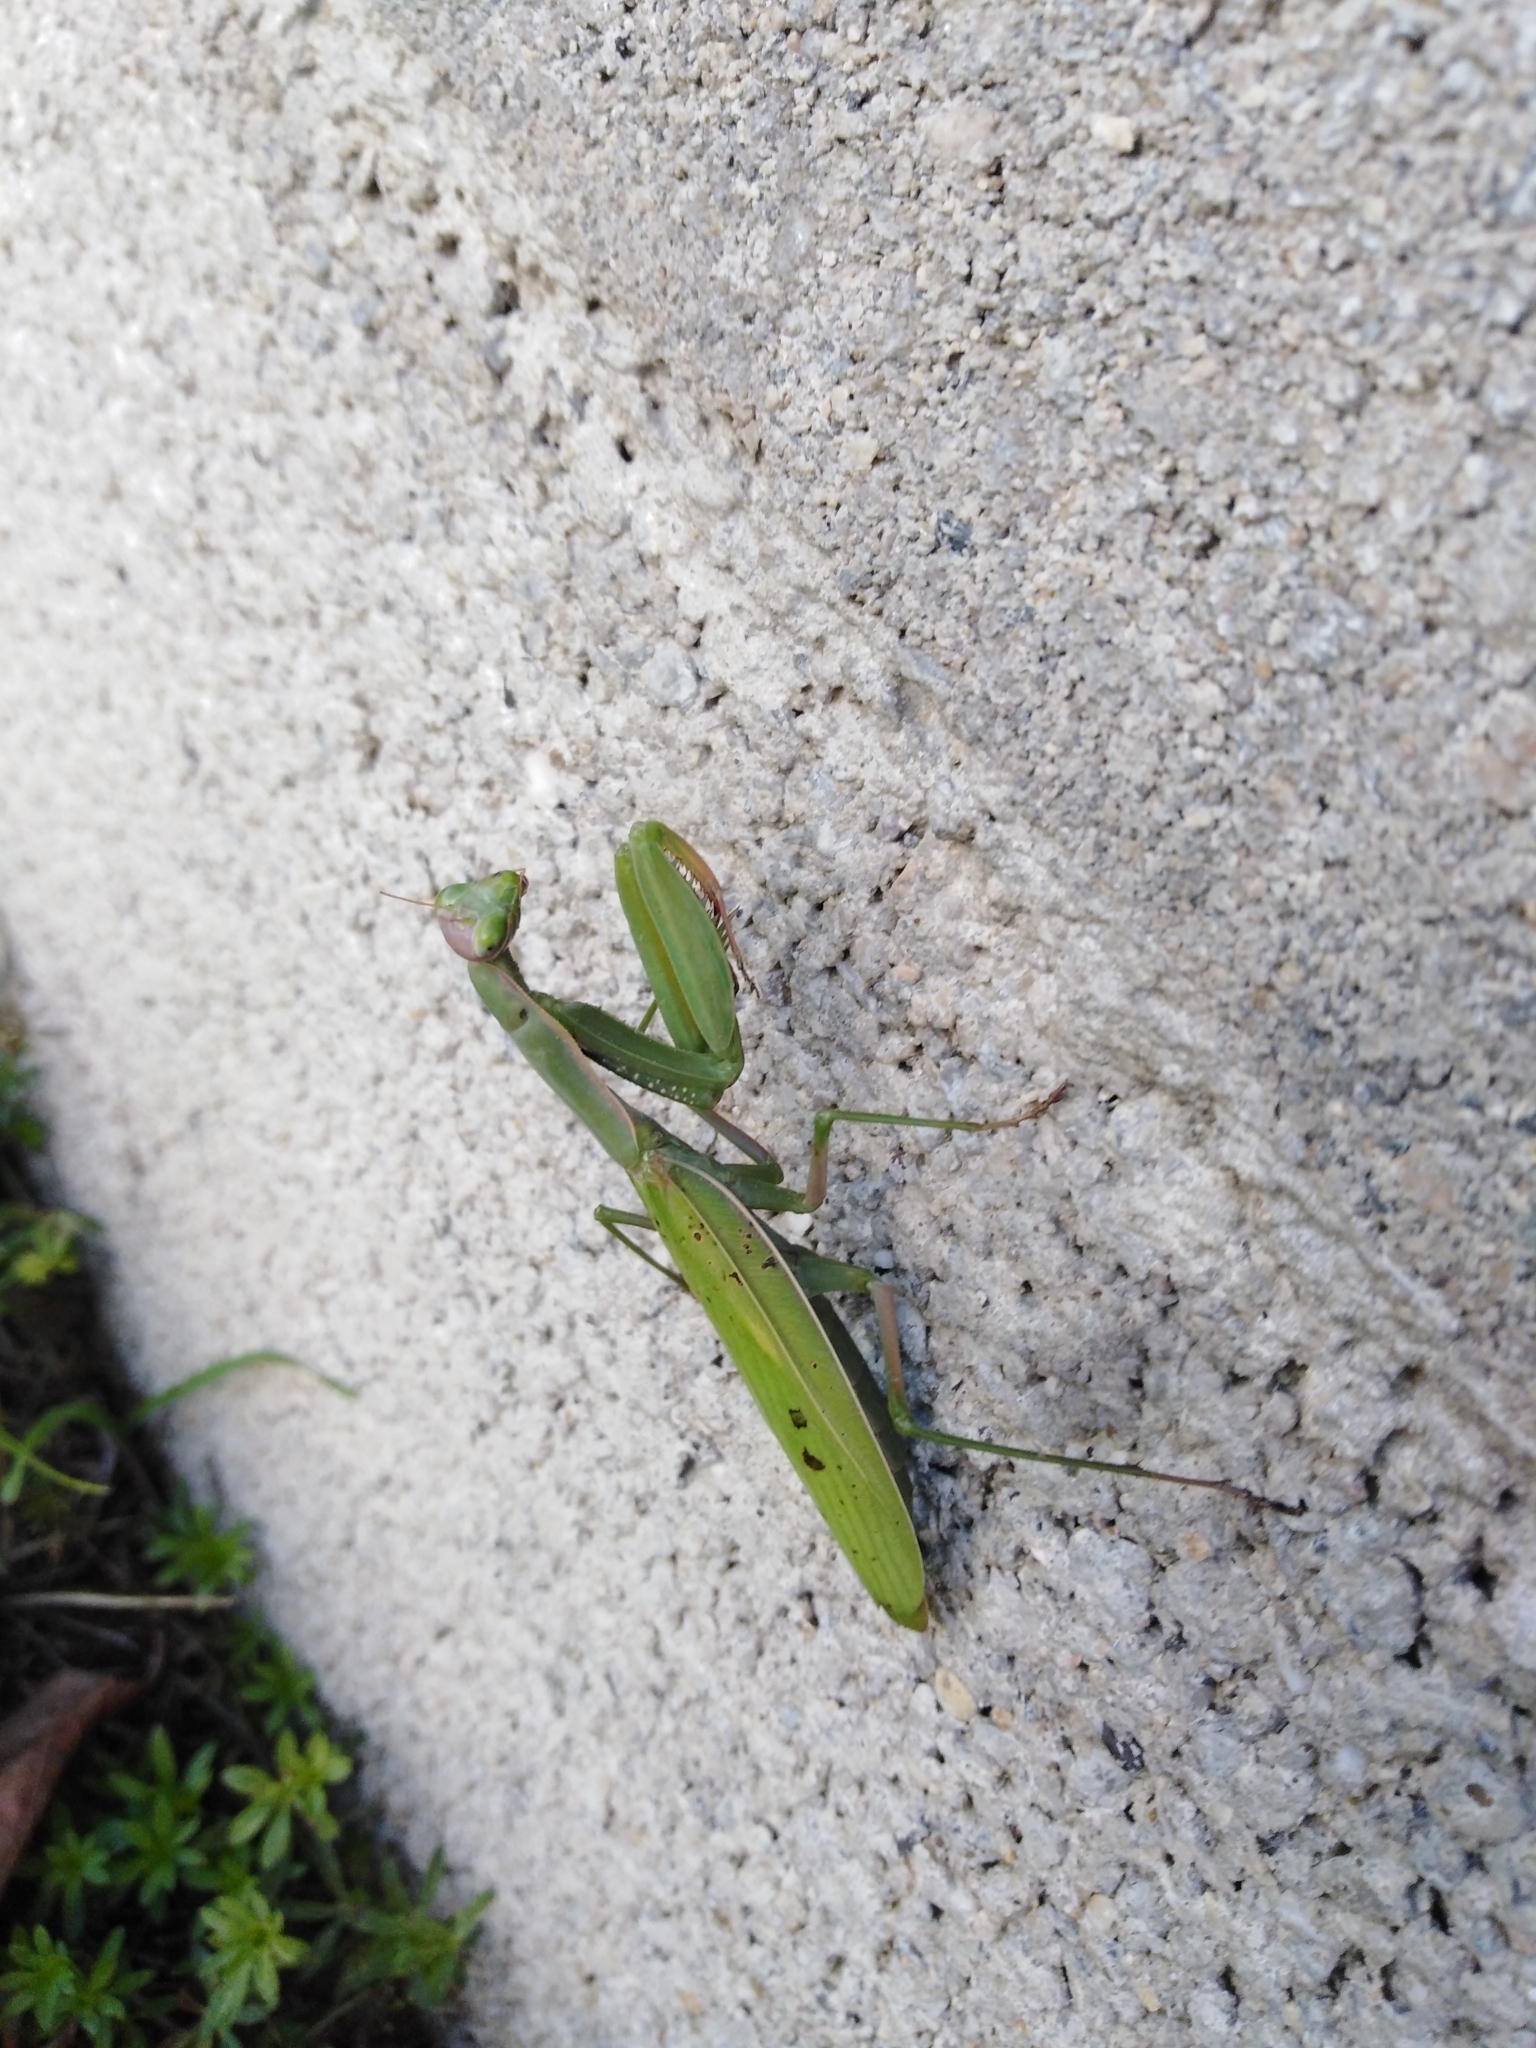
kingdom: Animalia
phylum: Arthropoda
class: Insecta
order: Mantodea
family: Mantidae
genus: Mantis
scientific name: Mantis religiosa
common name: Praying mantis
